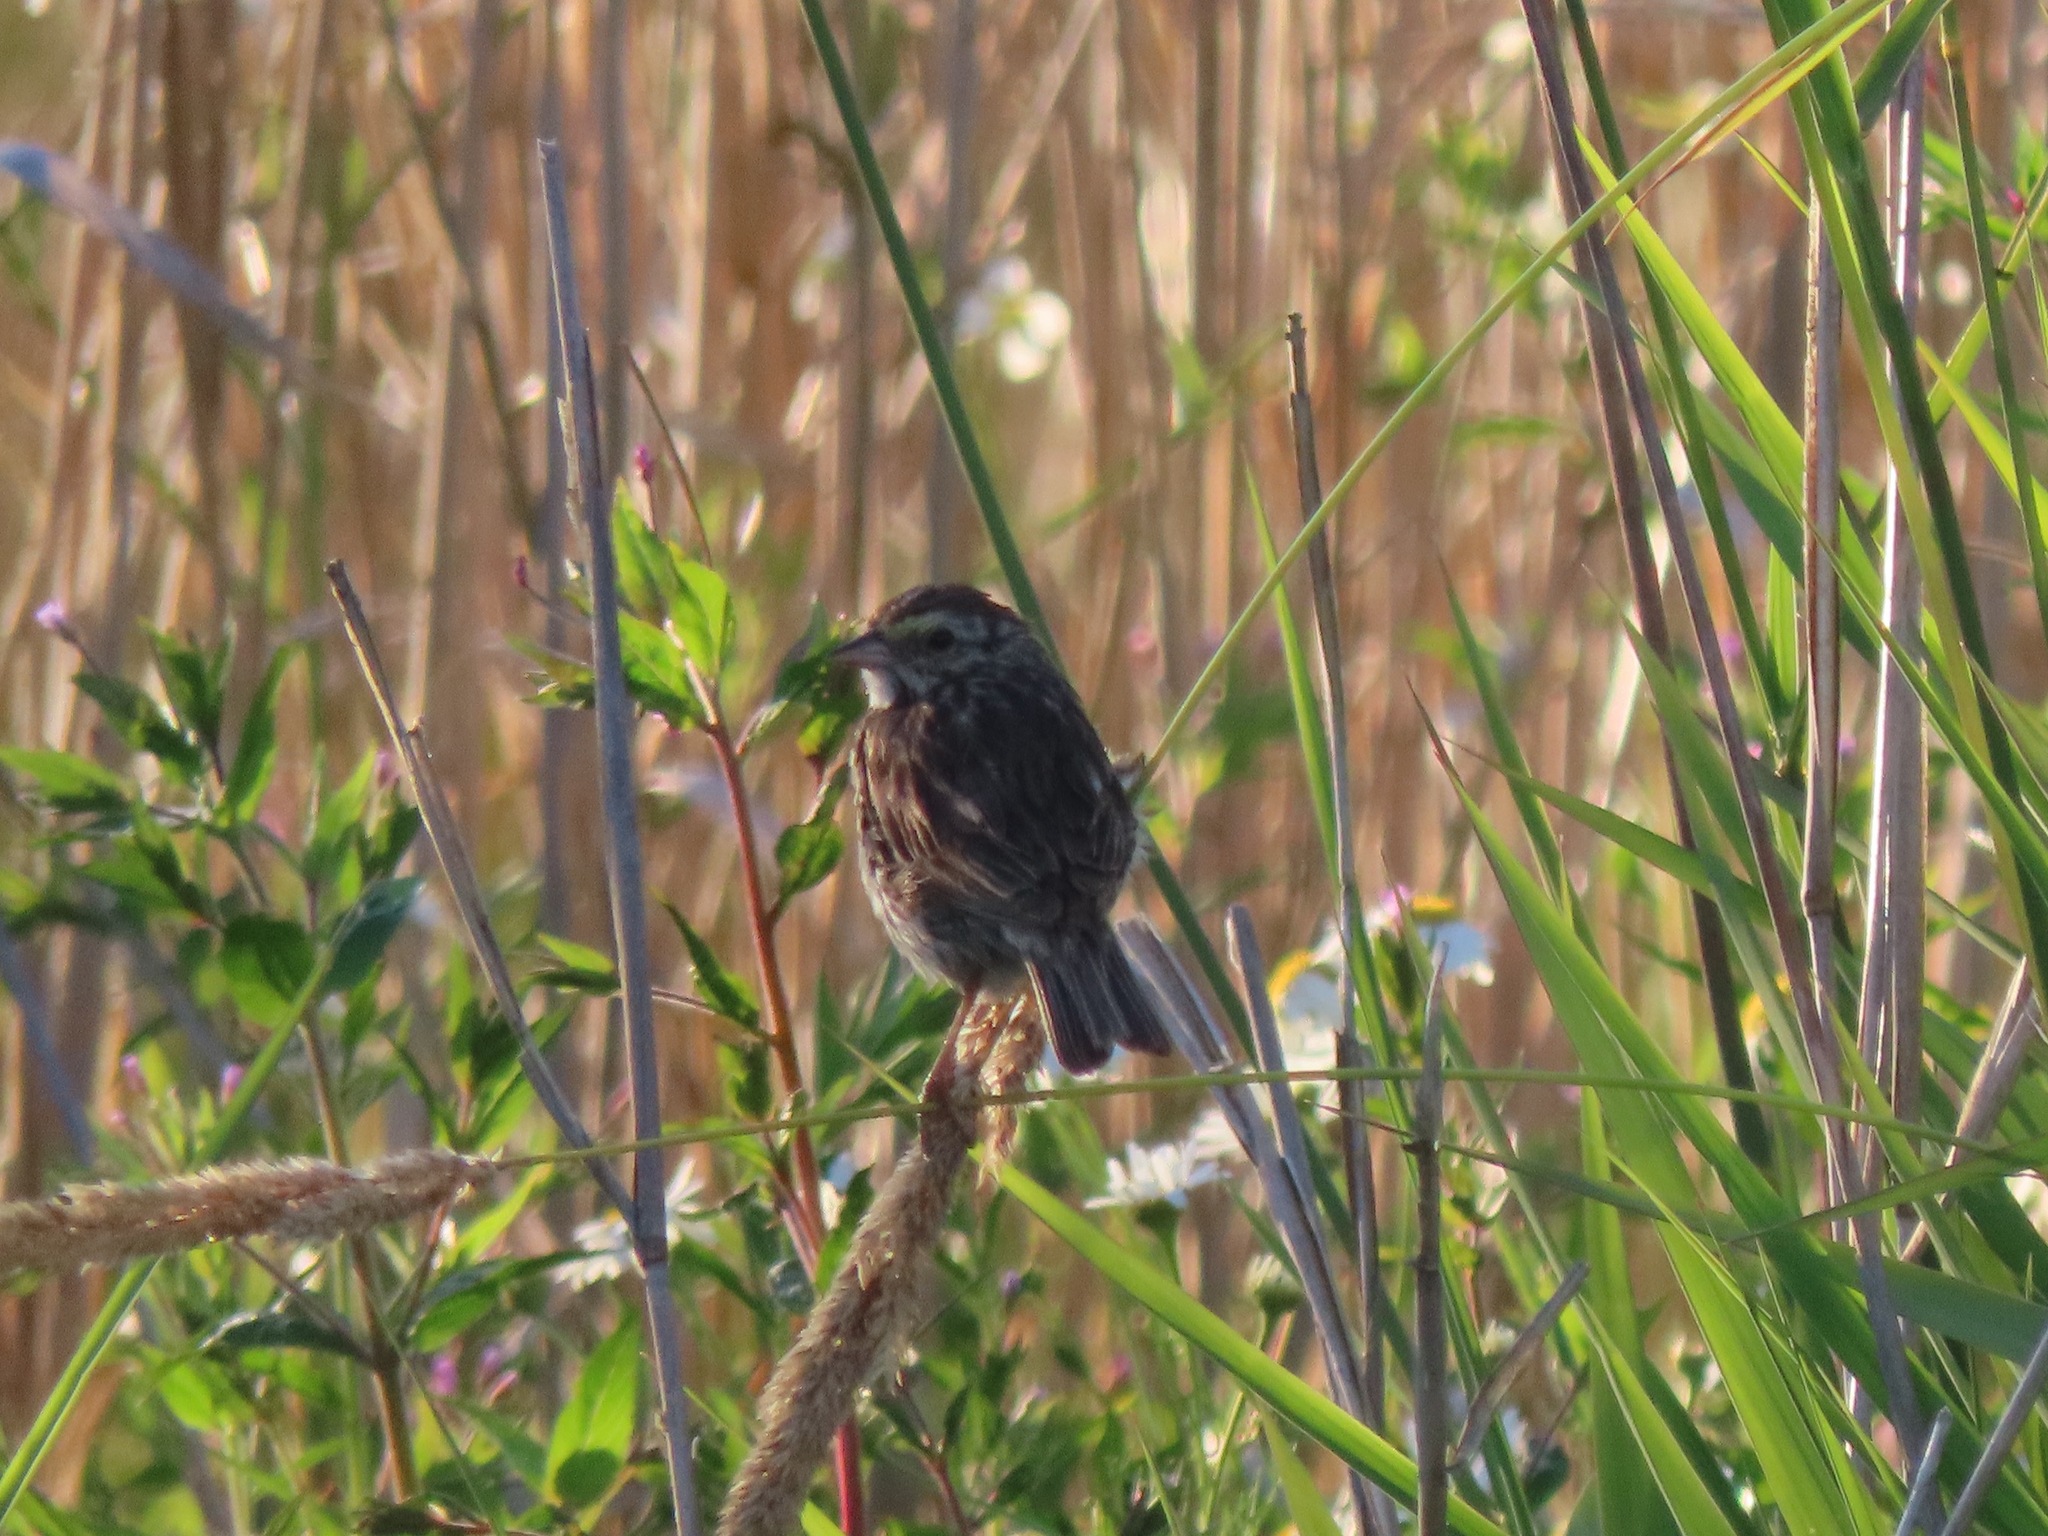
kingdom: Animalia
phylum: Chordata
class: Aves
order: Passeriformes
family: Passerellidae
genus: Melospiza
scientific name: Melospiza melodia
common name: Song sparrow
